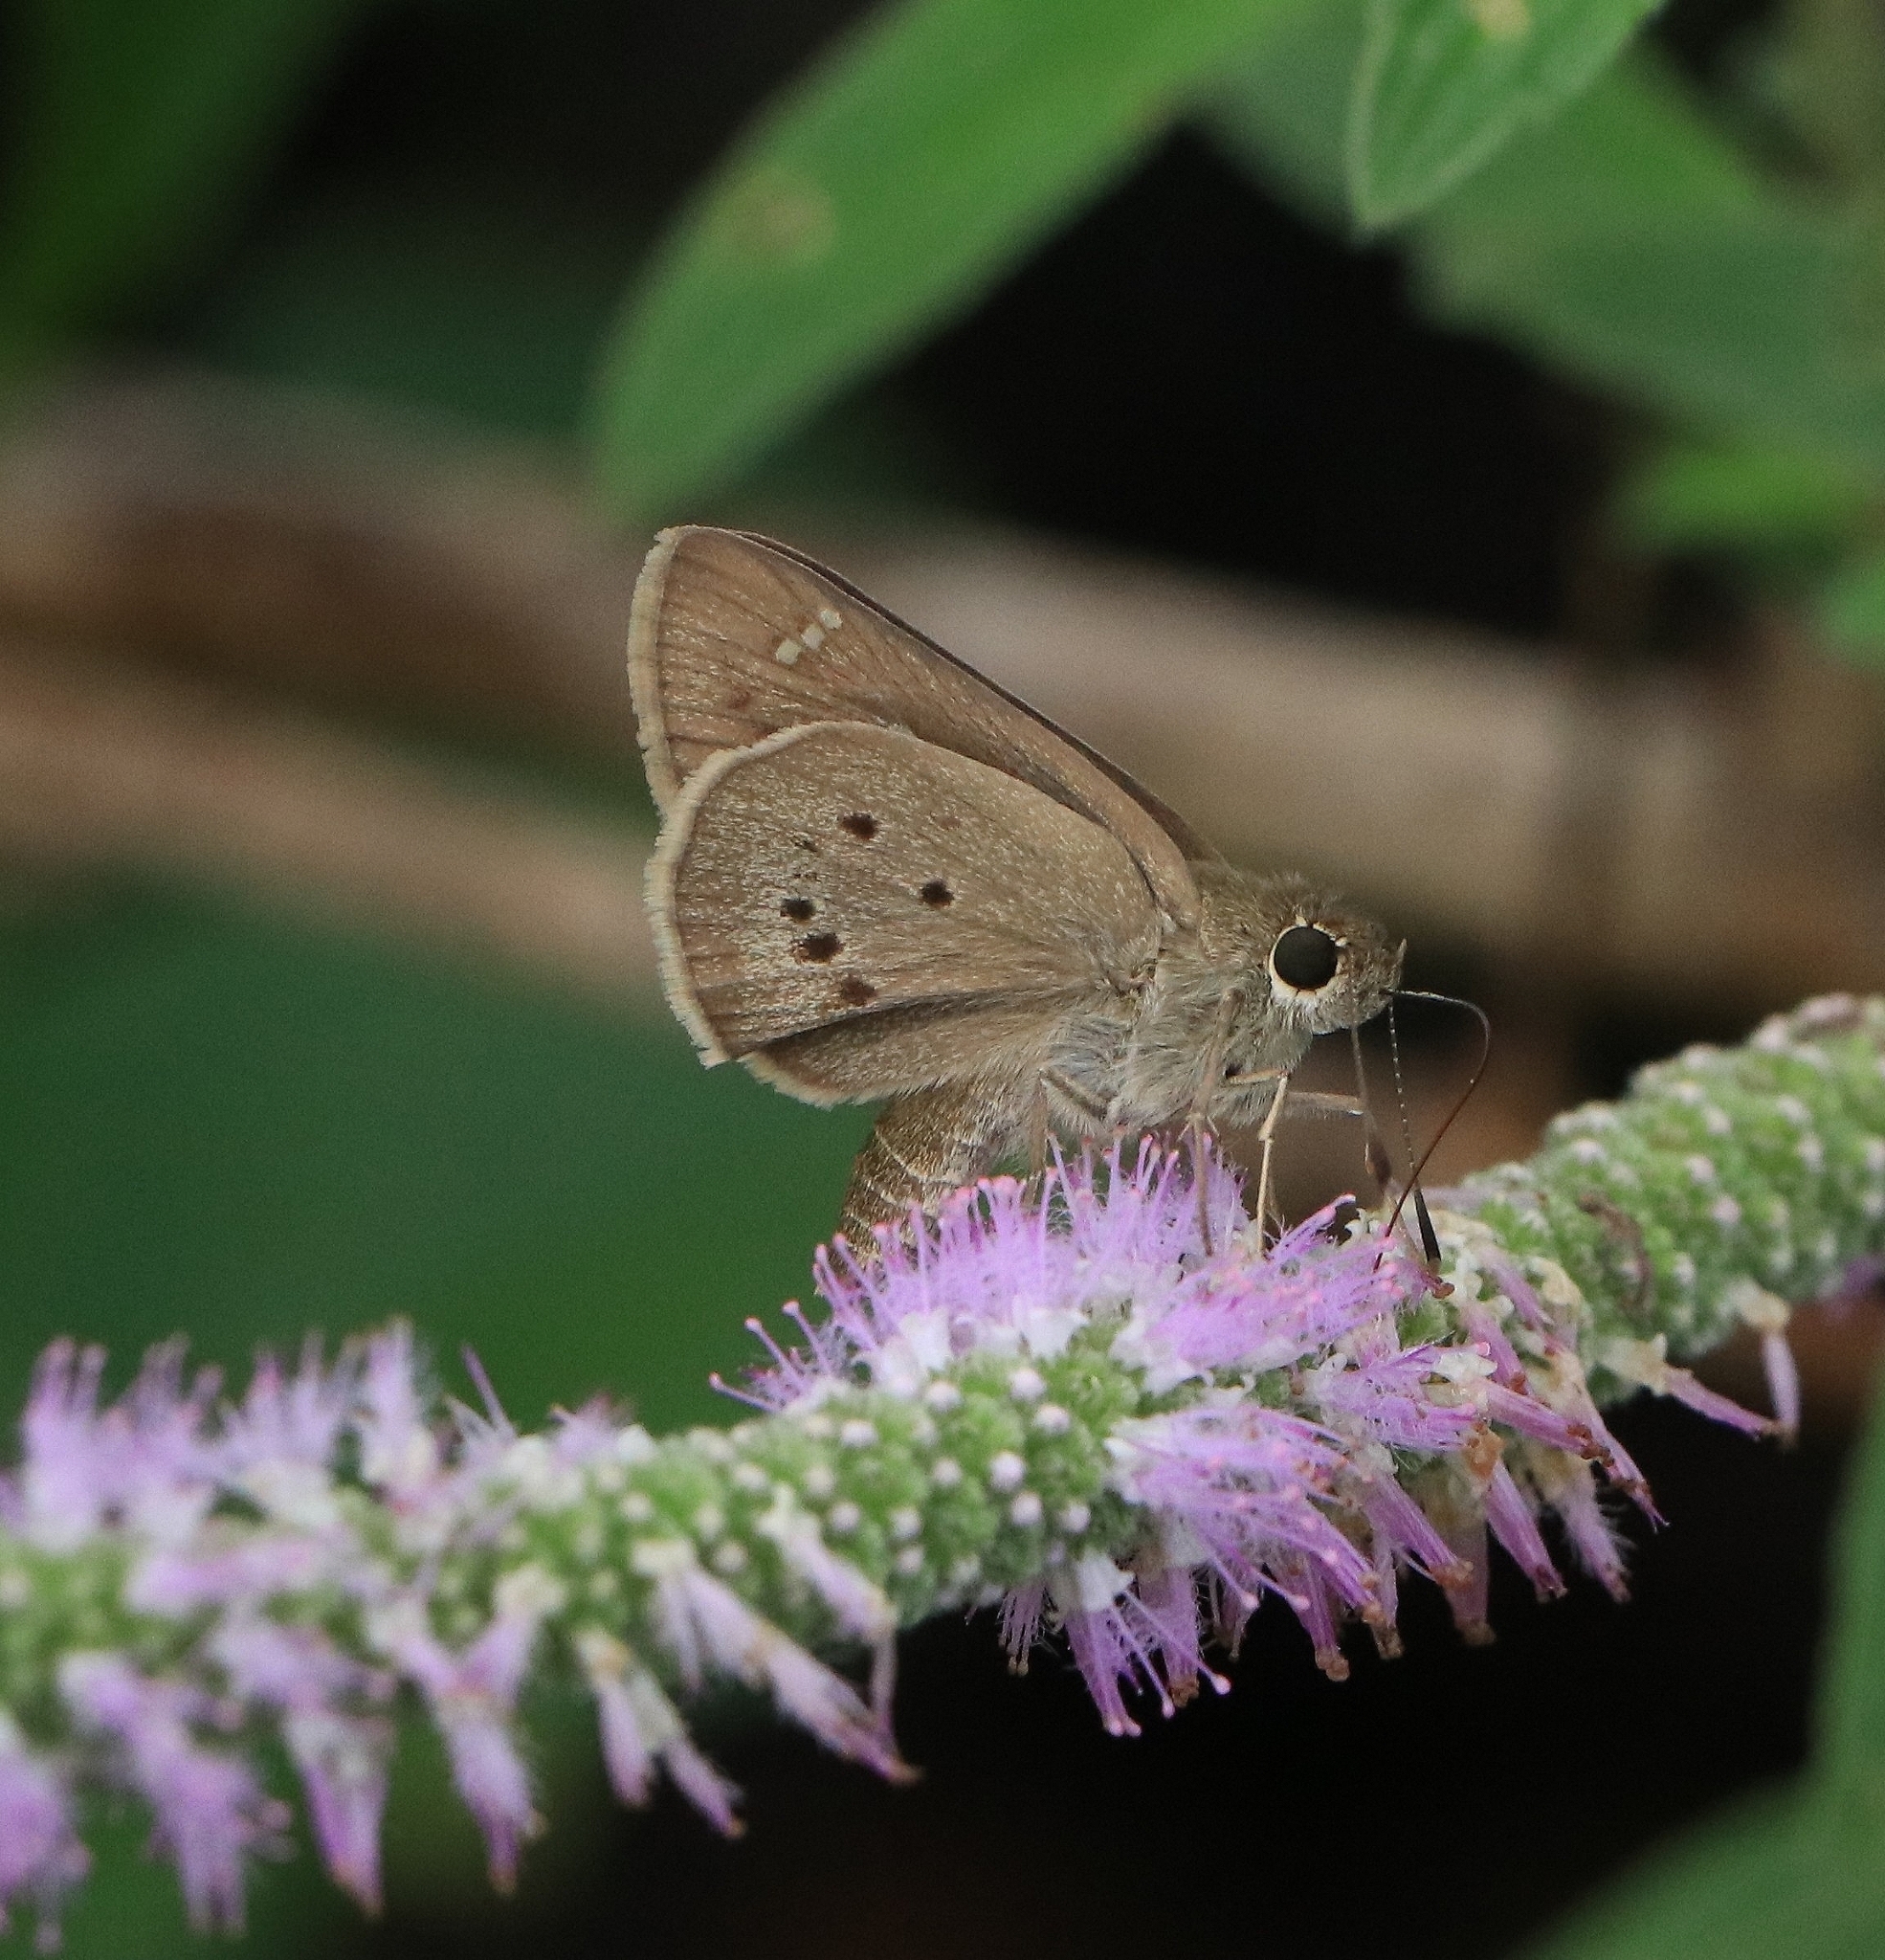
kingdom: Animalia
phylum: Arthropoda
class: Insecta
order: Lepidoptera
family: Hesperiidae
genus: Suastus
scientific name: Suastus gremius
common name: Indian palm bob
